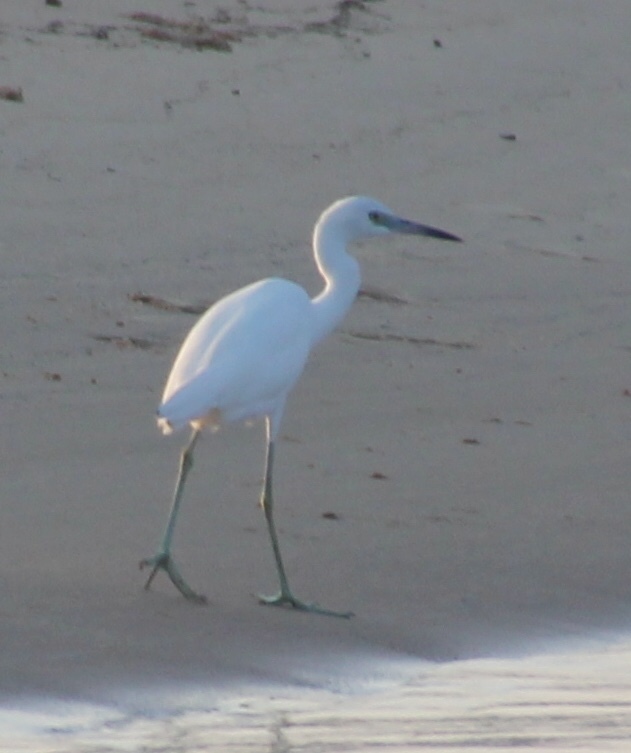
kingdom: Animalia
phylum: Chordata
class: Aves
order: Pelecaniformes
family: Ardeidae
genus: Egretta
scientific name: Egretta caerulea
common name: Little blue heron
